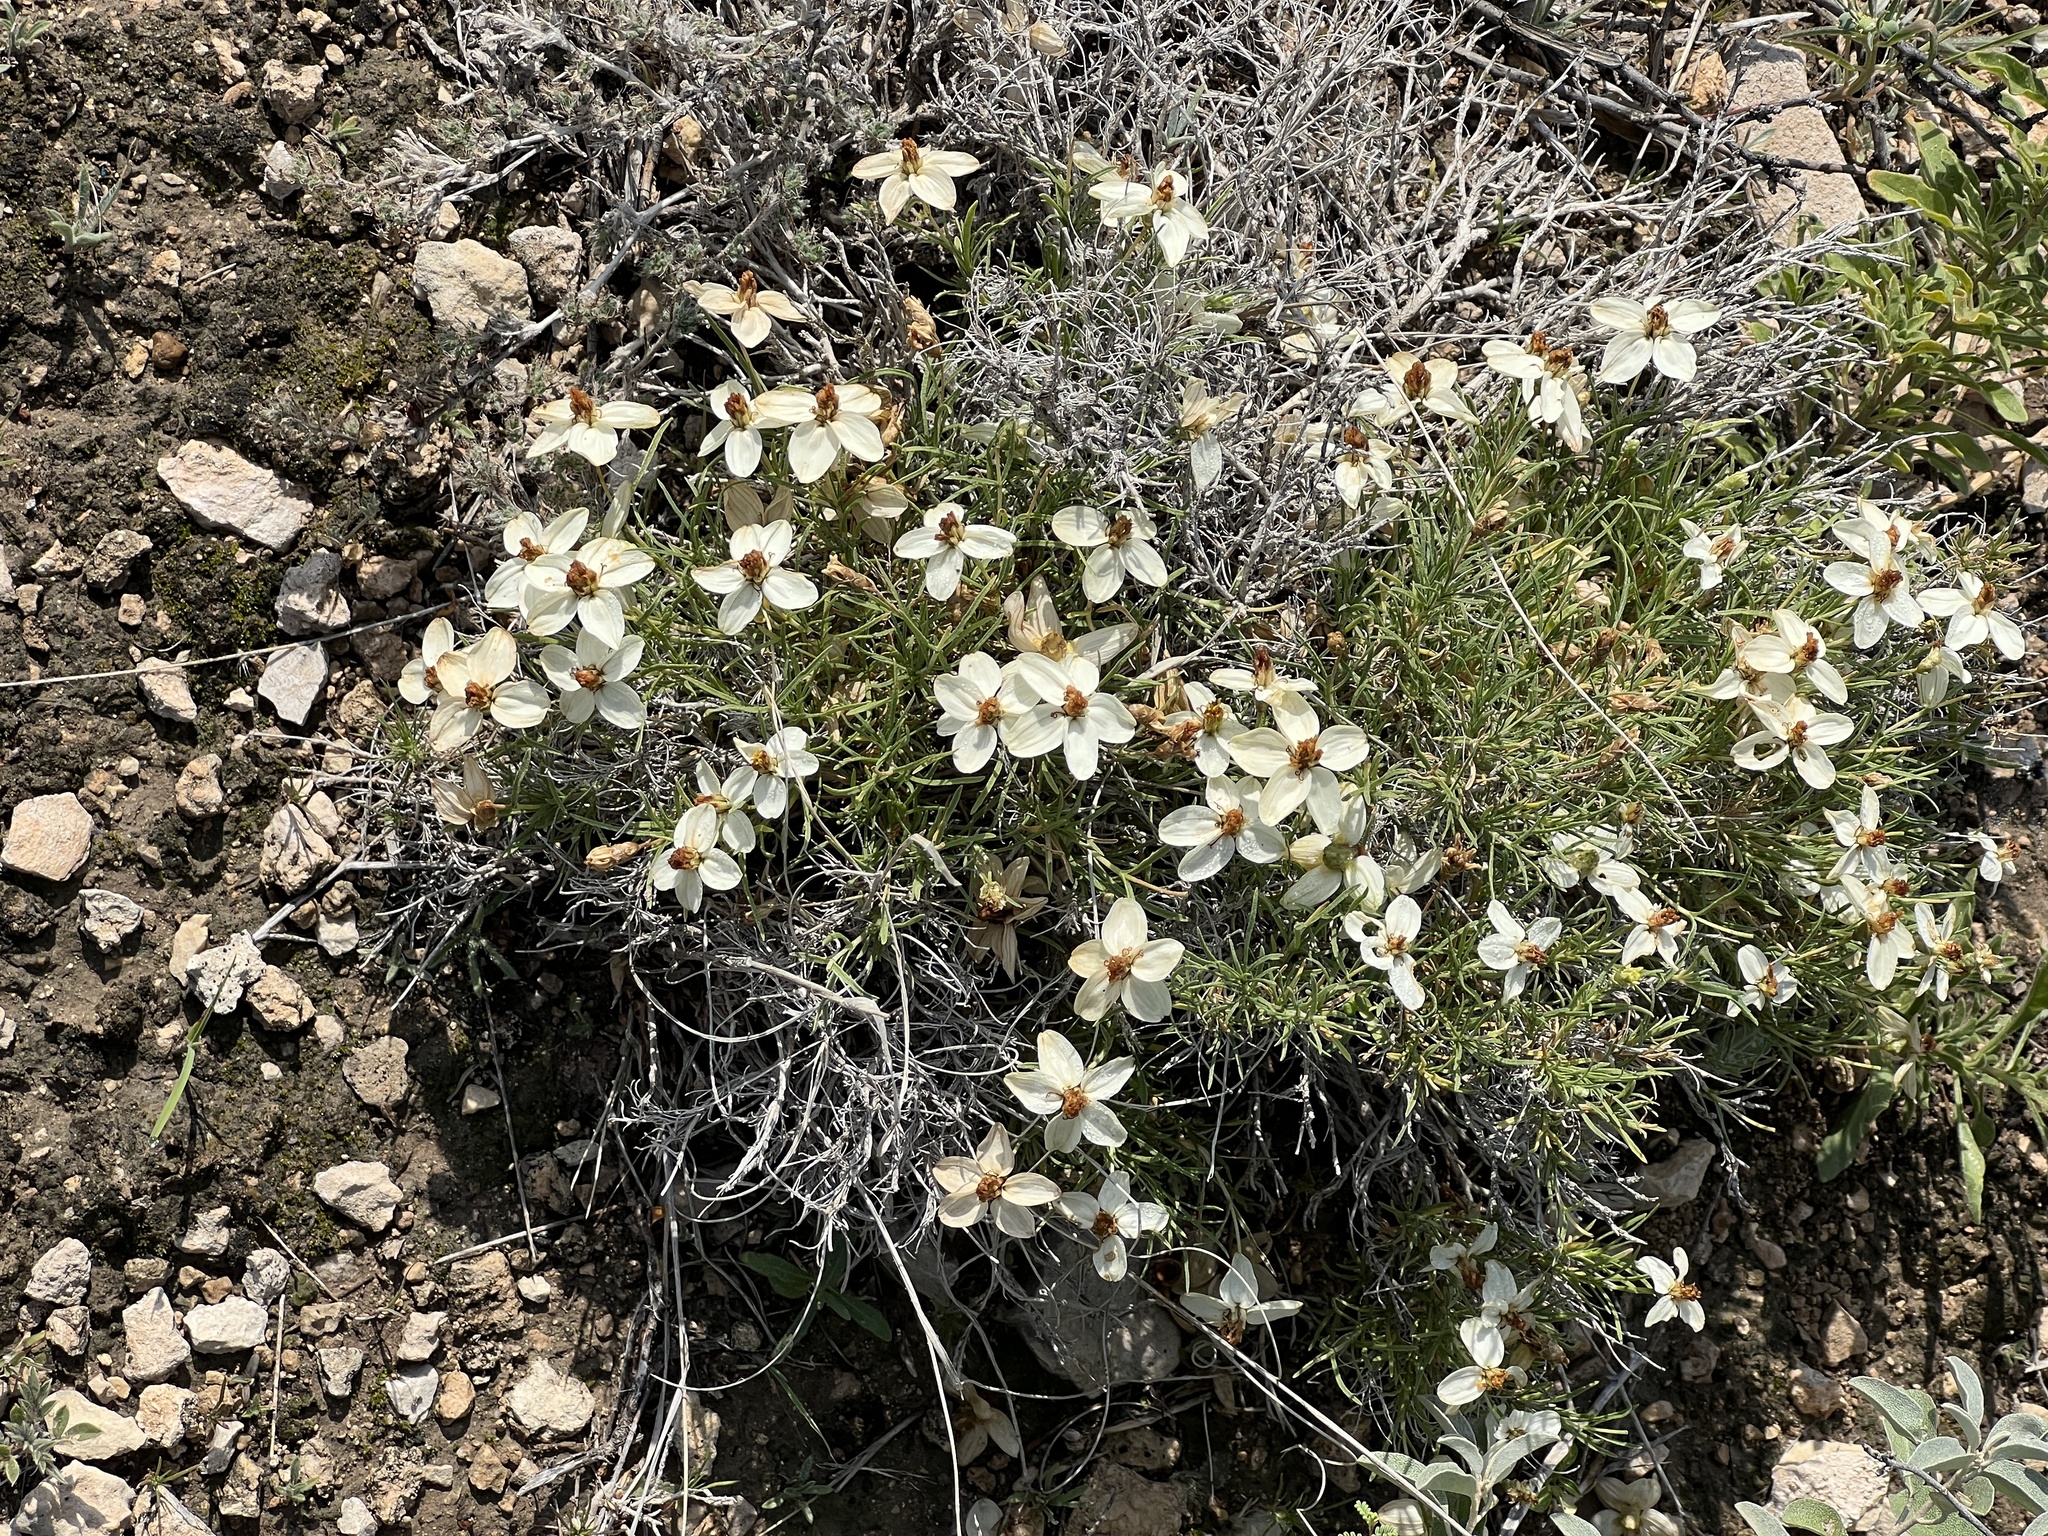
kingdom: Plantae
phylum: Tracheophyta
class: Magnoliopsida
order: Asterales
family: Asteraceae
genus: Zinnia
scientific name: Zinnia acerosa
